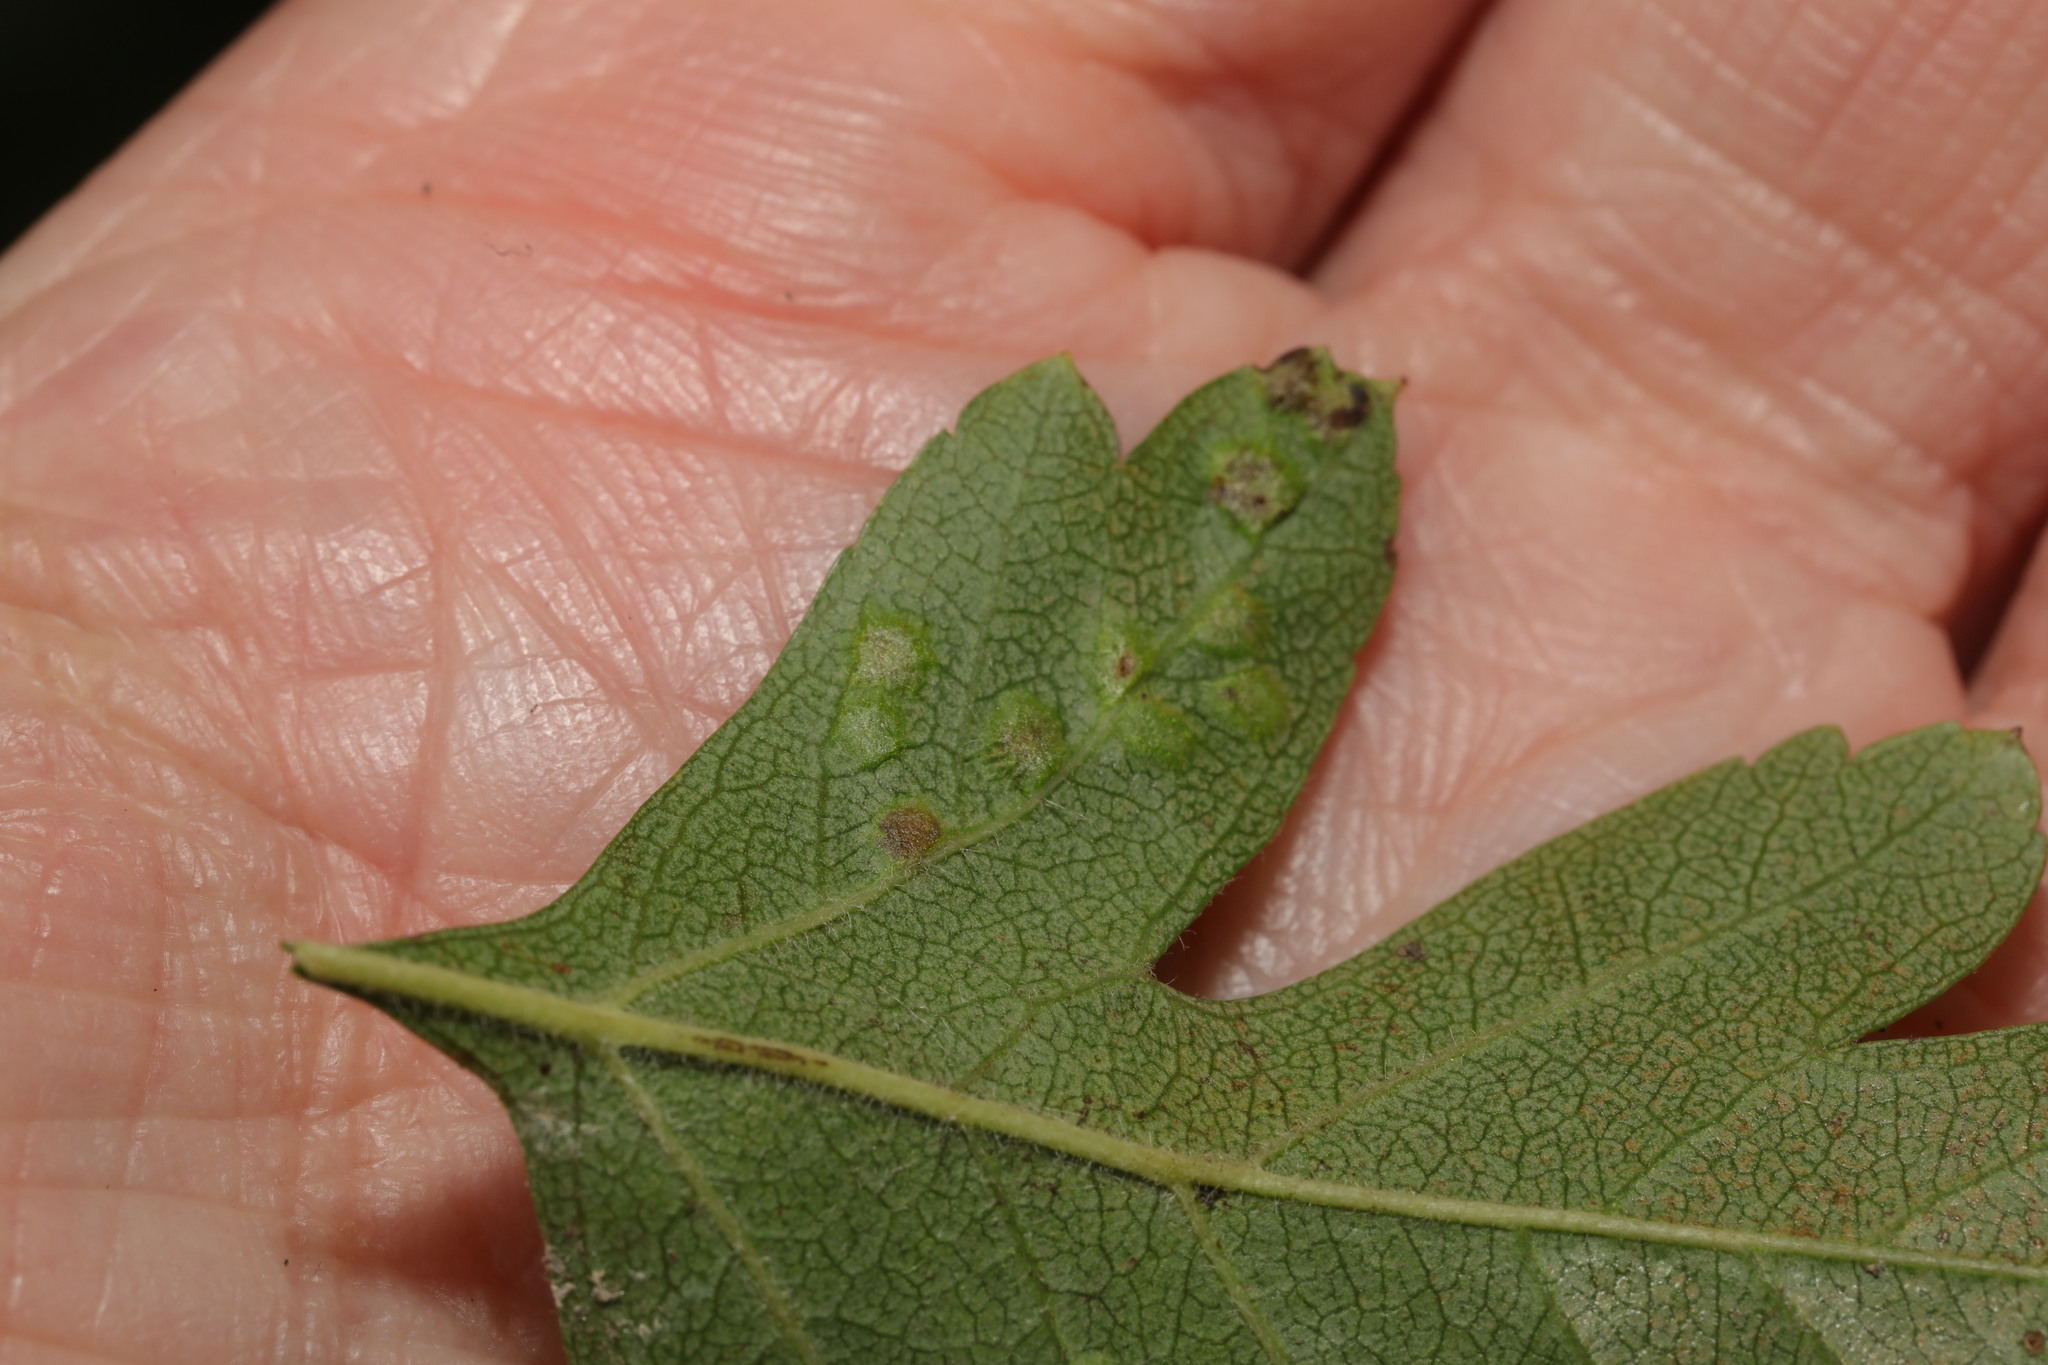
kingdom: Animalia
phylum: Arthropoda
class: Arachnida
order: Trombidiformes
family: Eriophyidae
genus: Eriophyes
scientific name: Eriophyes crataegi
